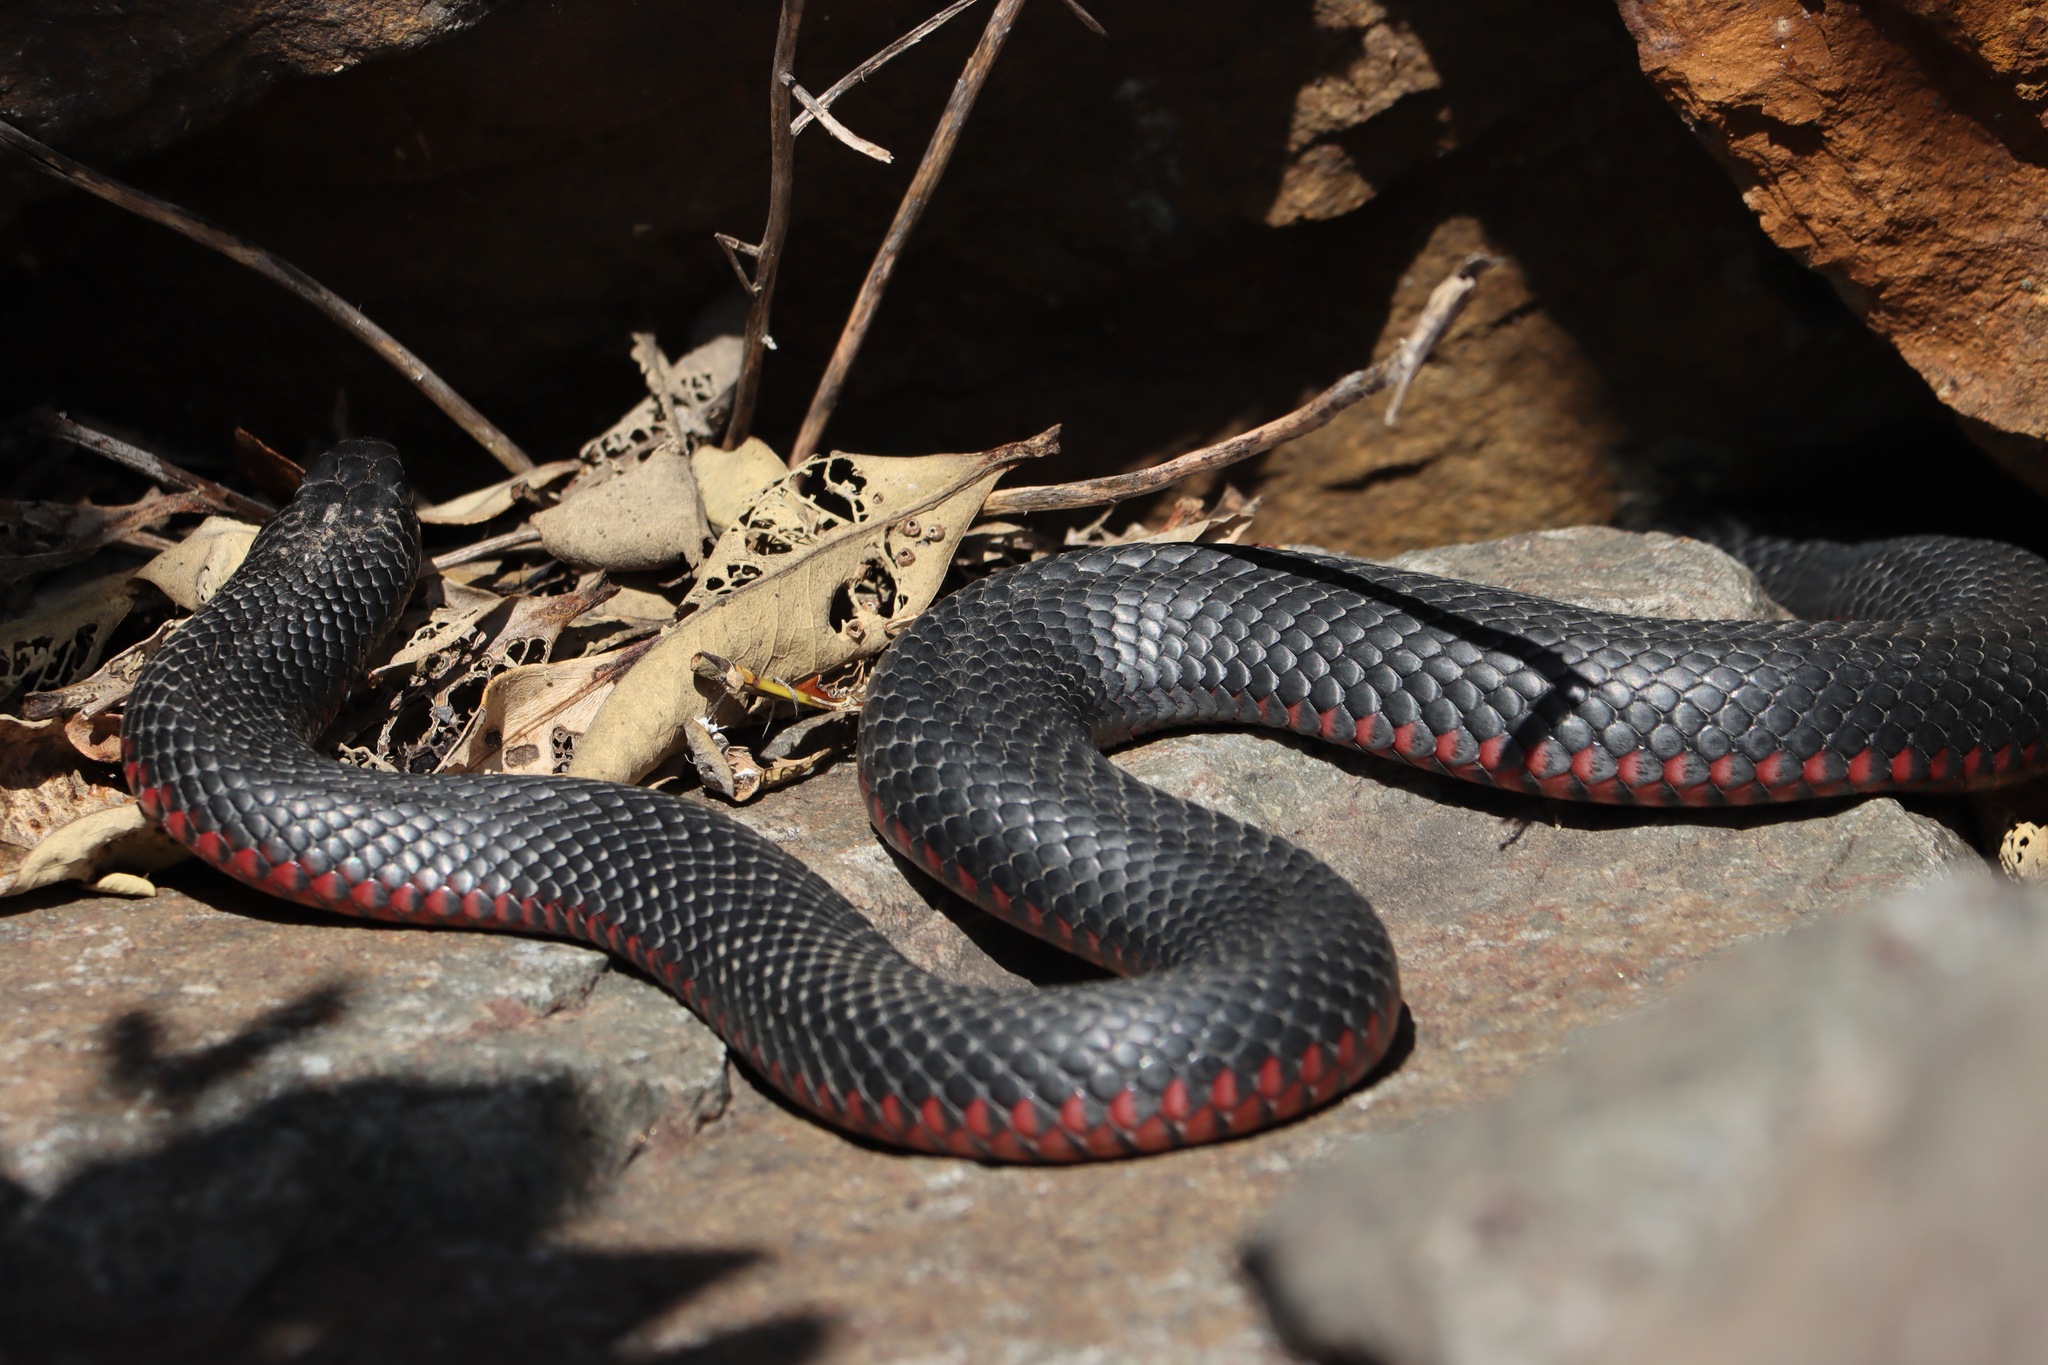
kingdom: Animalia
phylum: Chordata
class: Squamata
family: Elapidae
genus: Pseudechis
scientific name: Pseudechis porphyriacus
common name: Australian black snake
